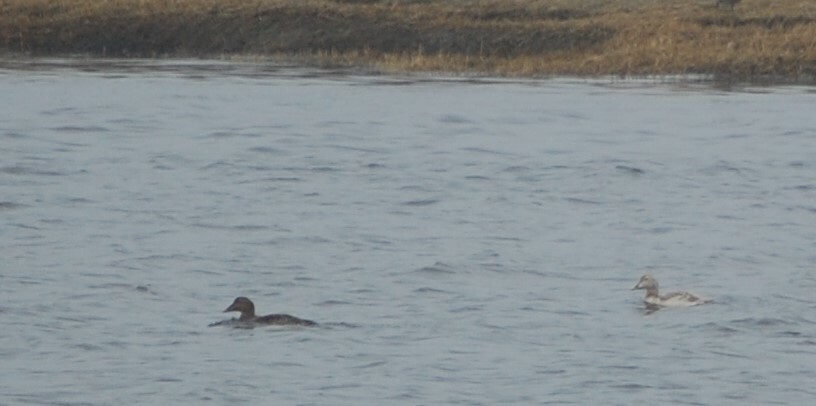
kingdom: Animalia
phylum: Chordata
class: Aves
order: Anseriformes
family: Anatidae
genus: Somateria
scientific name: Somateria mollissima
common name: Common eider
